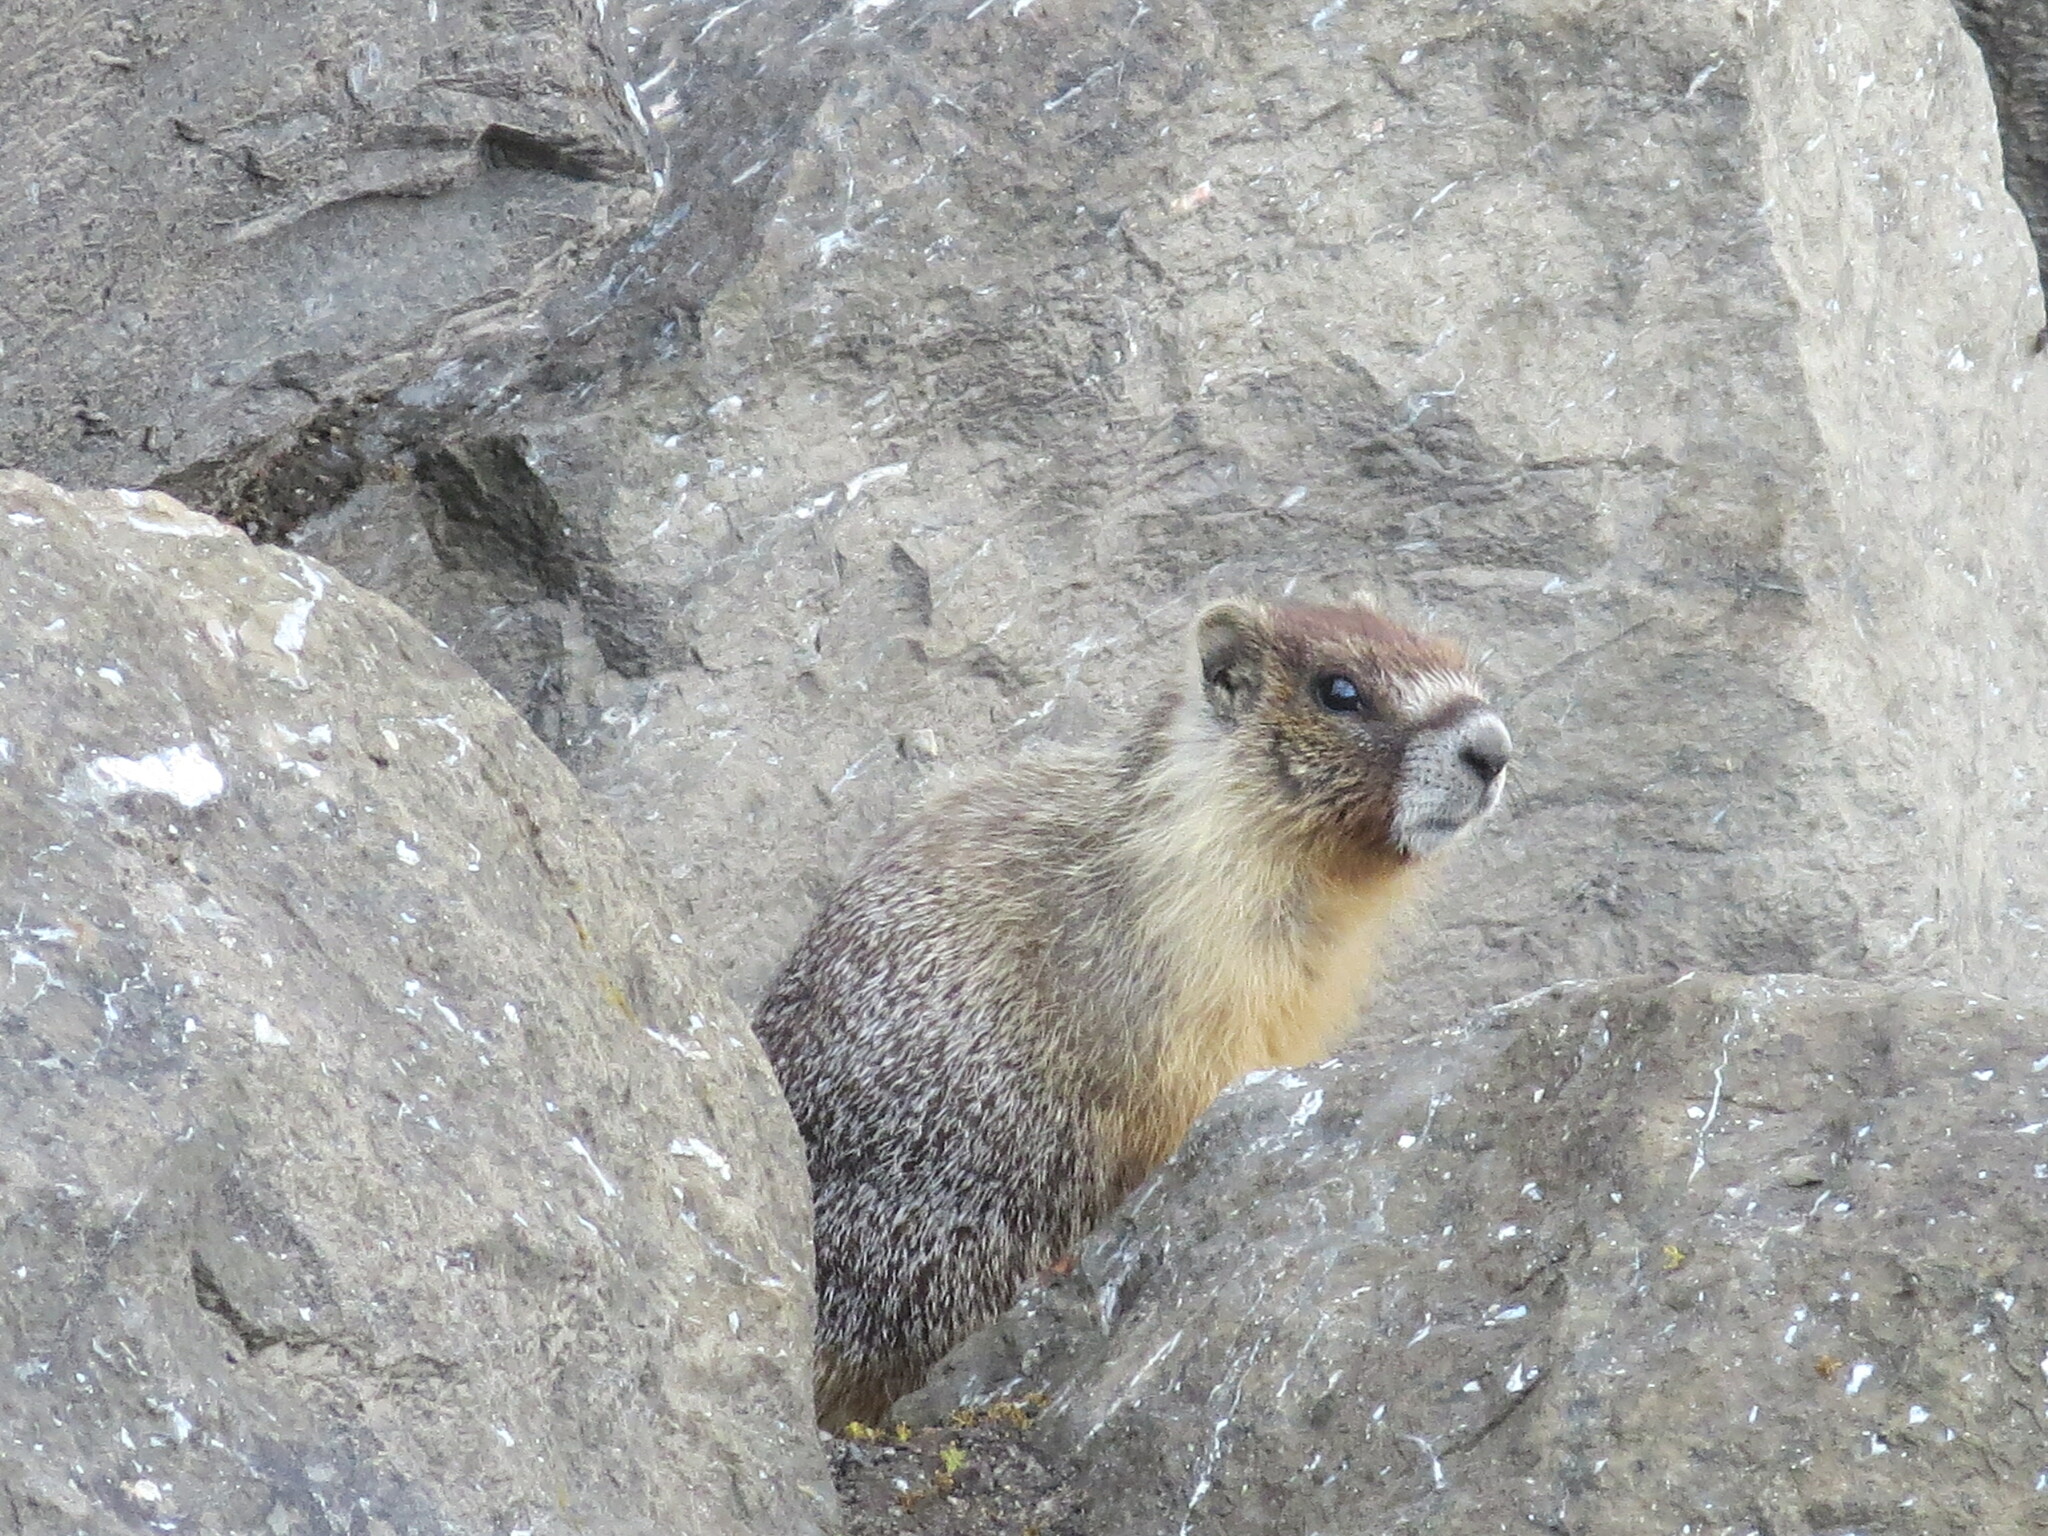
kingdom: Animalia
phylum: Chordata
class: Mammalia
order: Rodentia
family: Sciuridae
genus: Marmota
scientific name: Marmota flaviventris
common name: Yellow-bellied marmot
